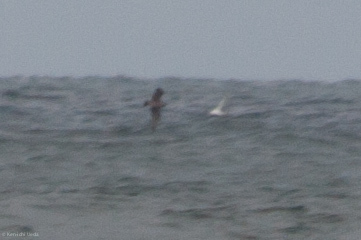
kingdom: Animalia
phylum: Chordata
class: Aves
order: Charadriiformes
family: Stercorariidae
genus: Stercorarius
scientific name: Stercorarius parasiticus
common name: Parasitic jaeger
